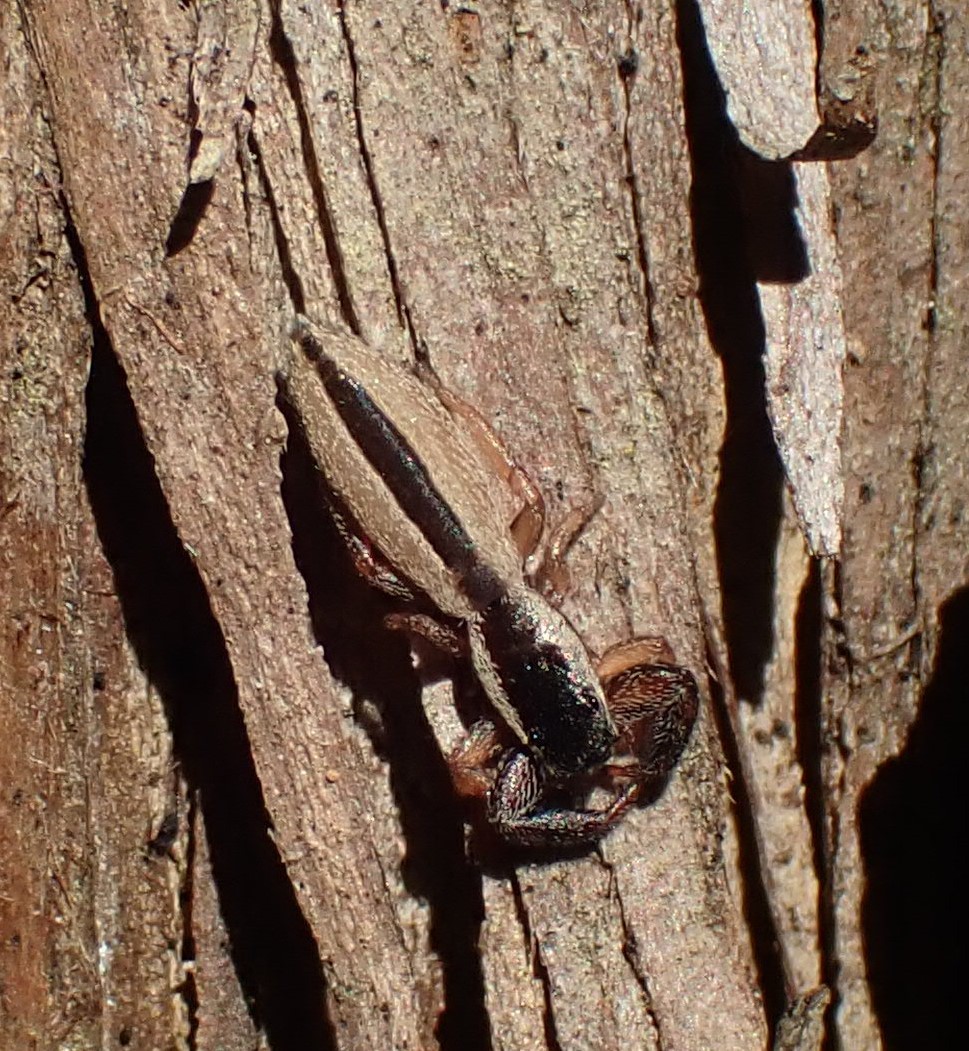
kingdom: Animalia
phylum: Arthropoda
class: Arachnida
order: Araneae
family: Salticidae
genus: Holoplatys
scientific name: Holoplatys tasmanensis
